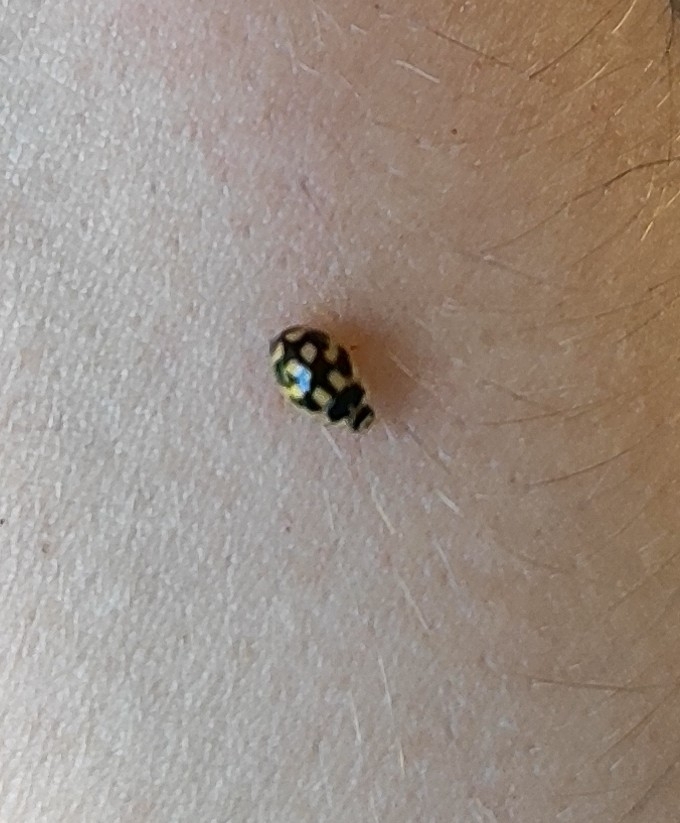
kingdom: Animalia
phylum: Arthropoda
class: Insecta
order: Coleoptera
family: Coccinellidae
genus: Propylaea
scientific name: Propylaea quatuordecimpunctata
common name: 14-spotted ladybird beetle
